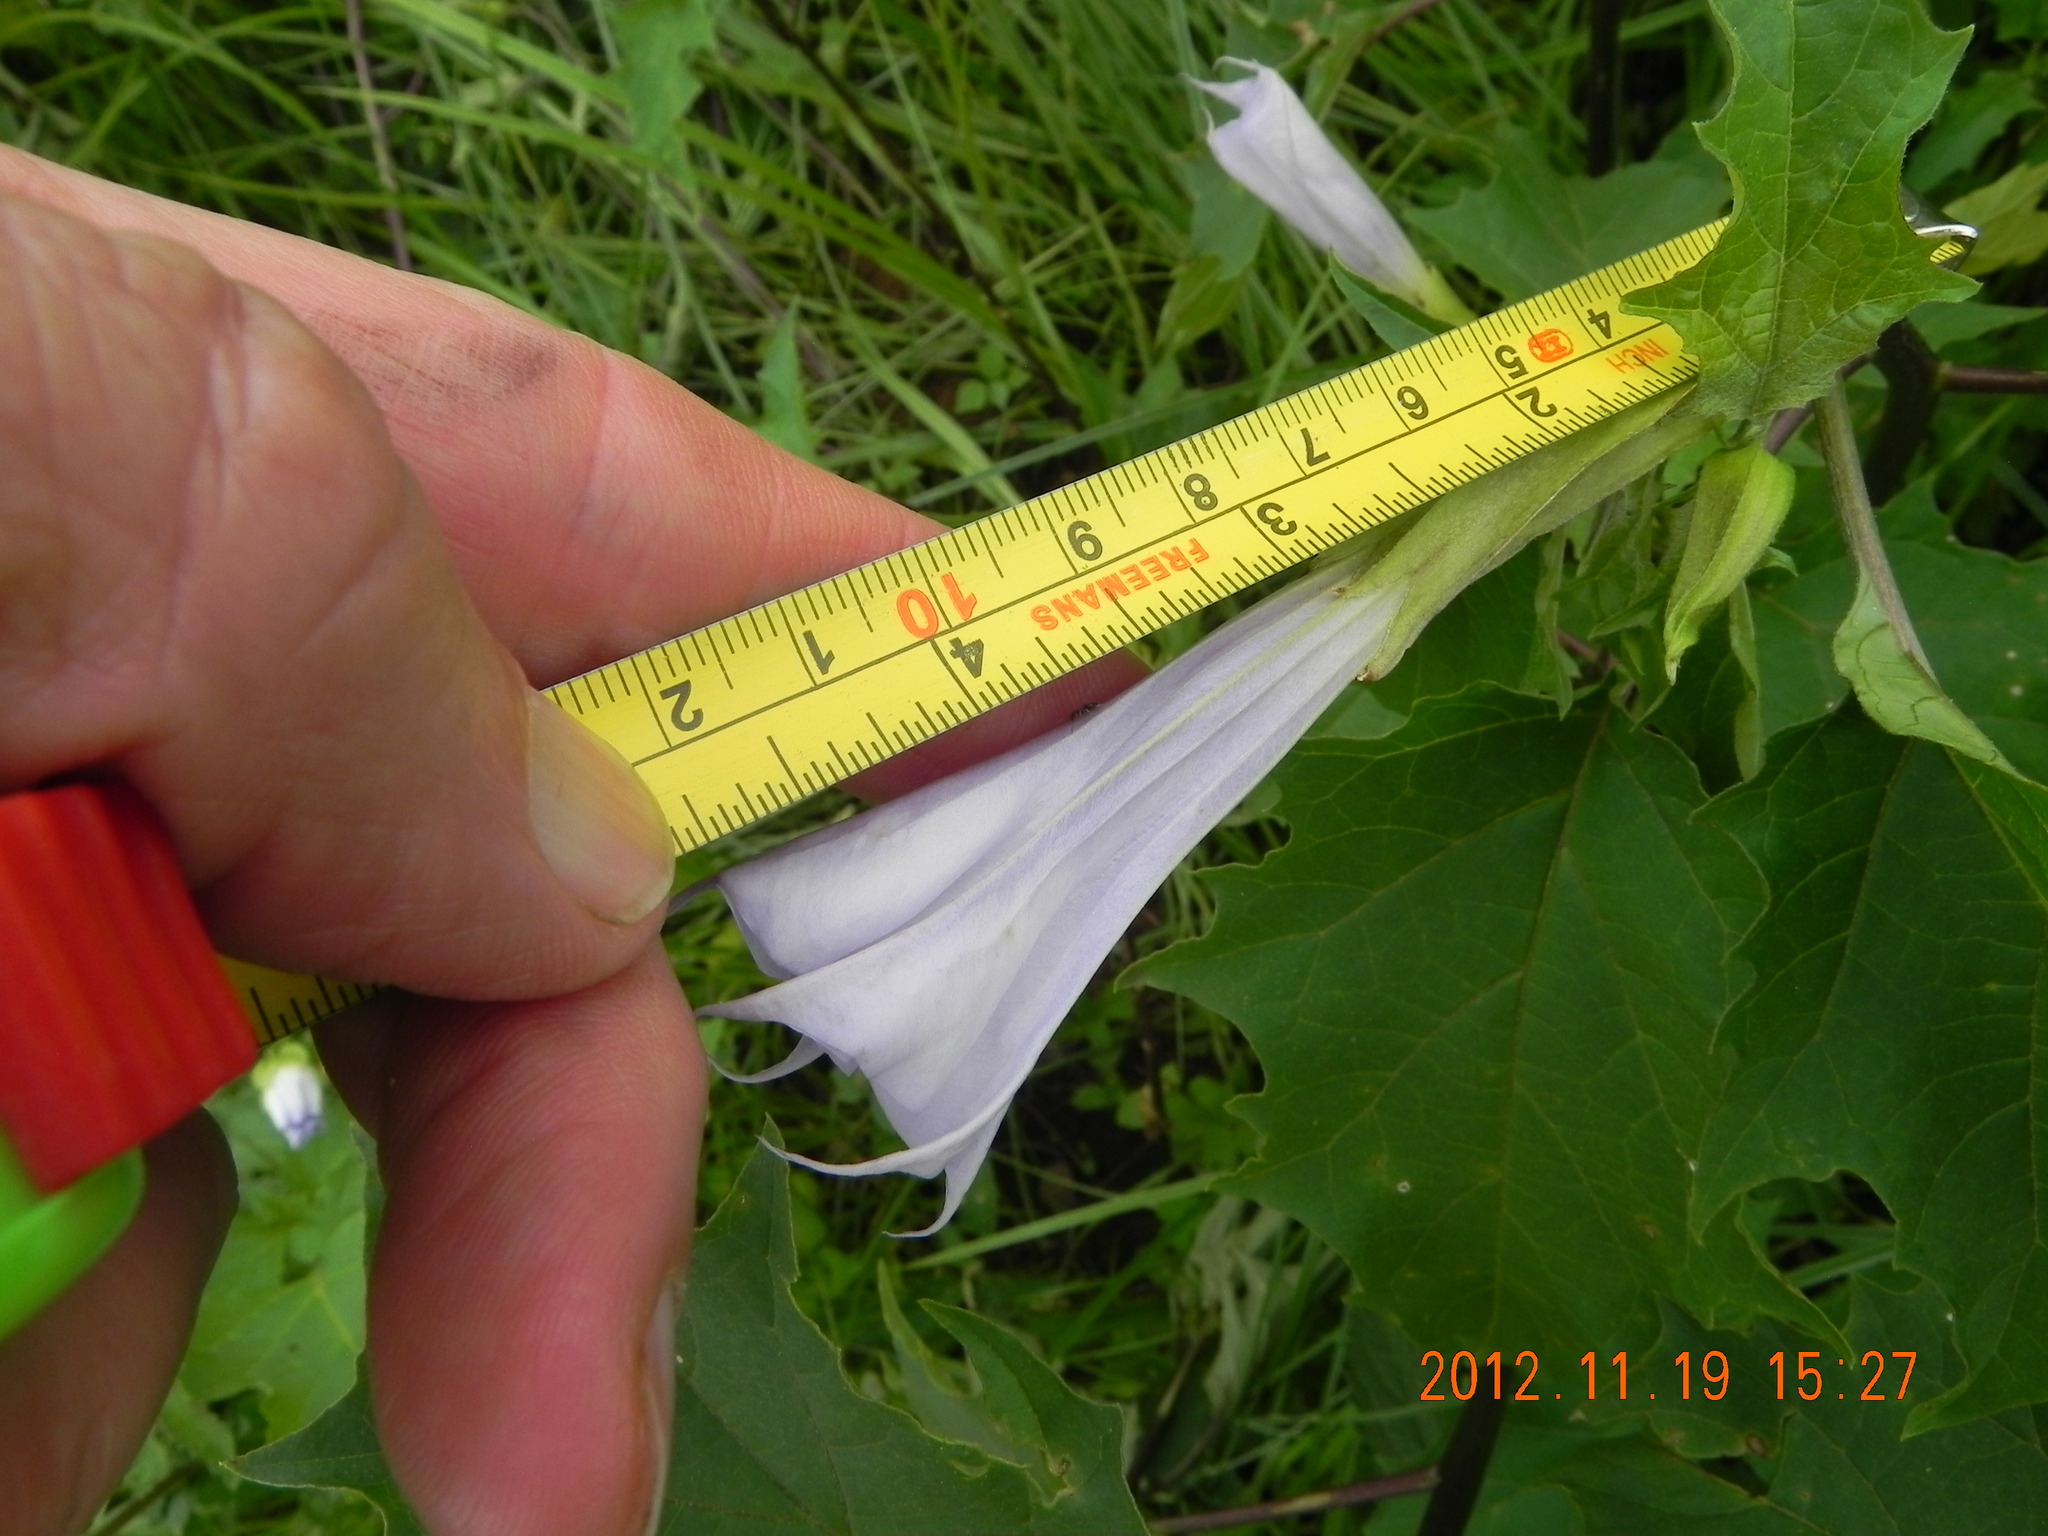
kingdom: Plantae
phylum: Tracheophyta
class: Magnoliopsida
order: Solanales
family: Solanaceae
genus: Datura
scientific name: Datura stramonium
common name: Thorn-apple
